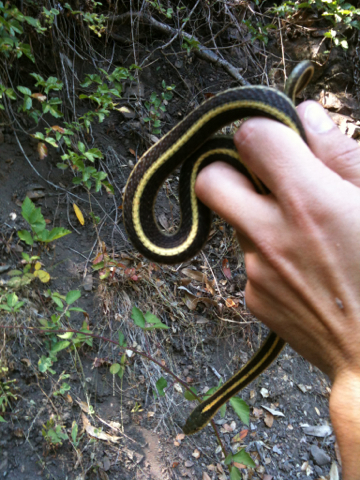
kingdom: Animalia
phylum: Chordata
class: Squamata
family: Colubridae
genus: Thamnophis
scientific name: Thamnophis elegans
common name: Western terrestrial garter snake
